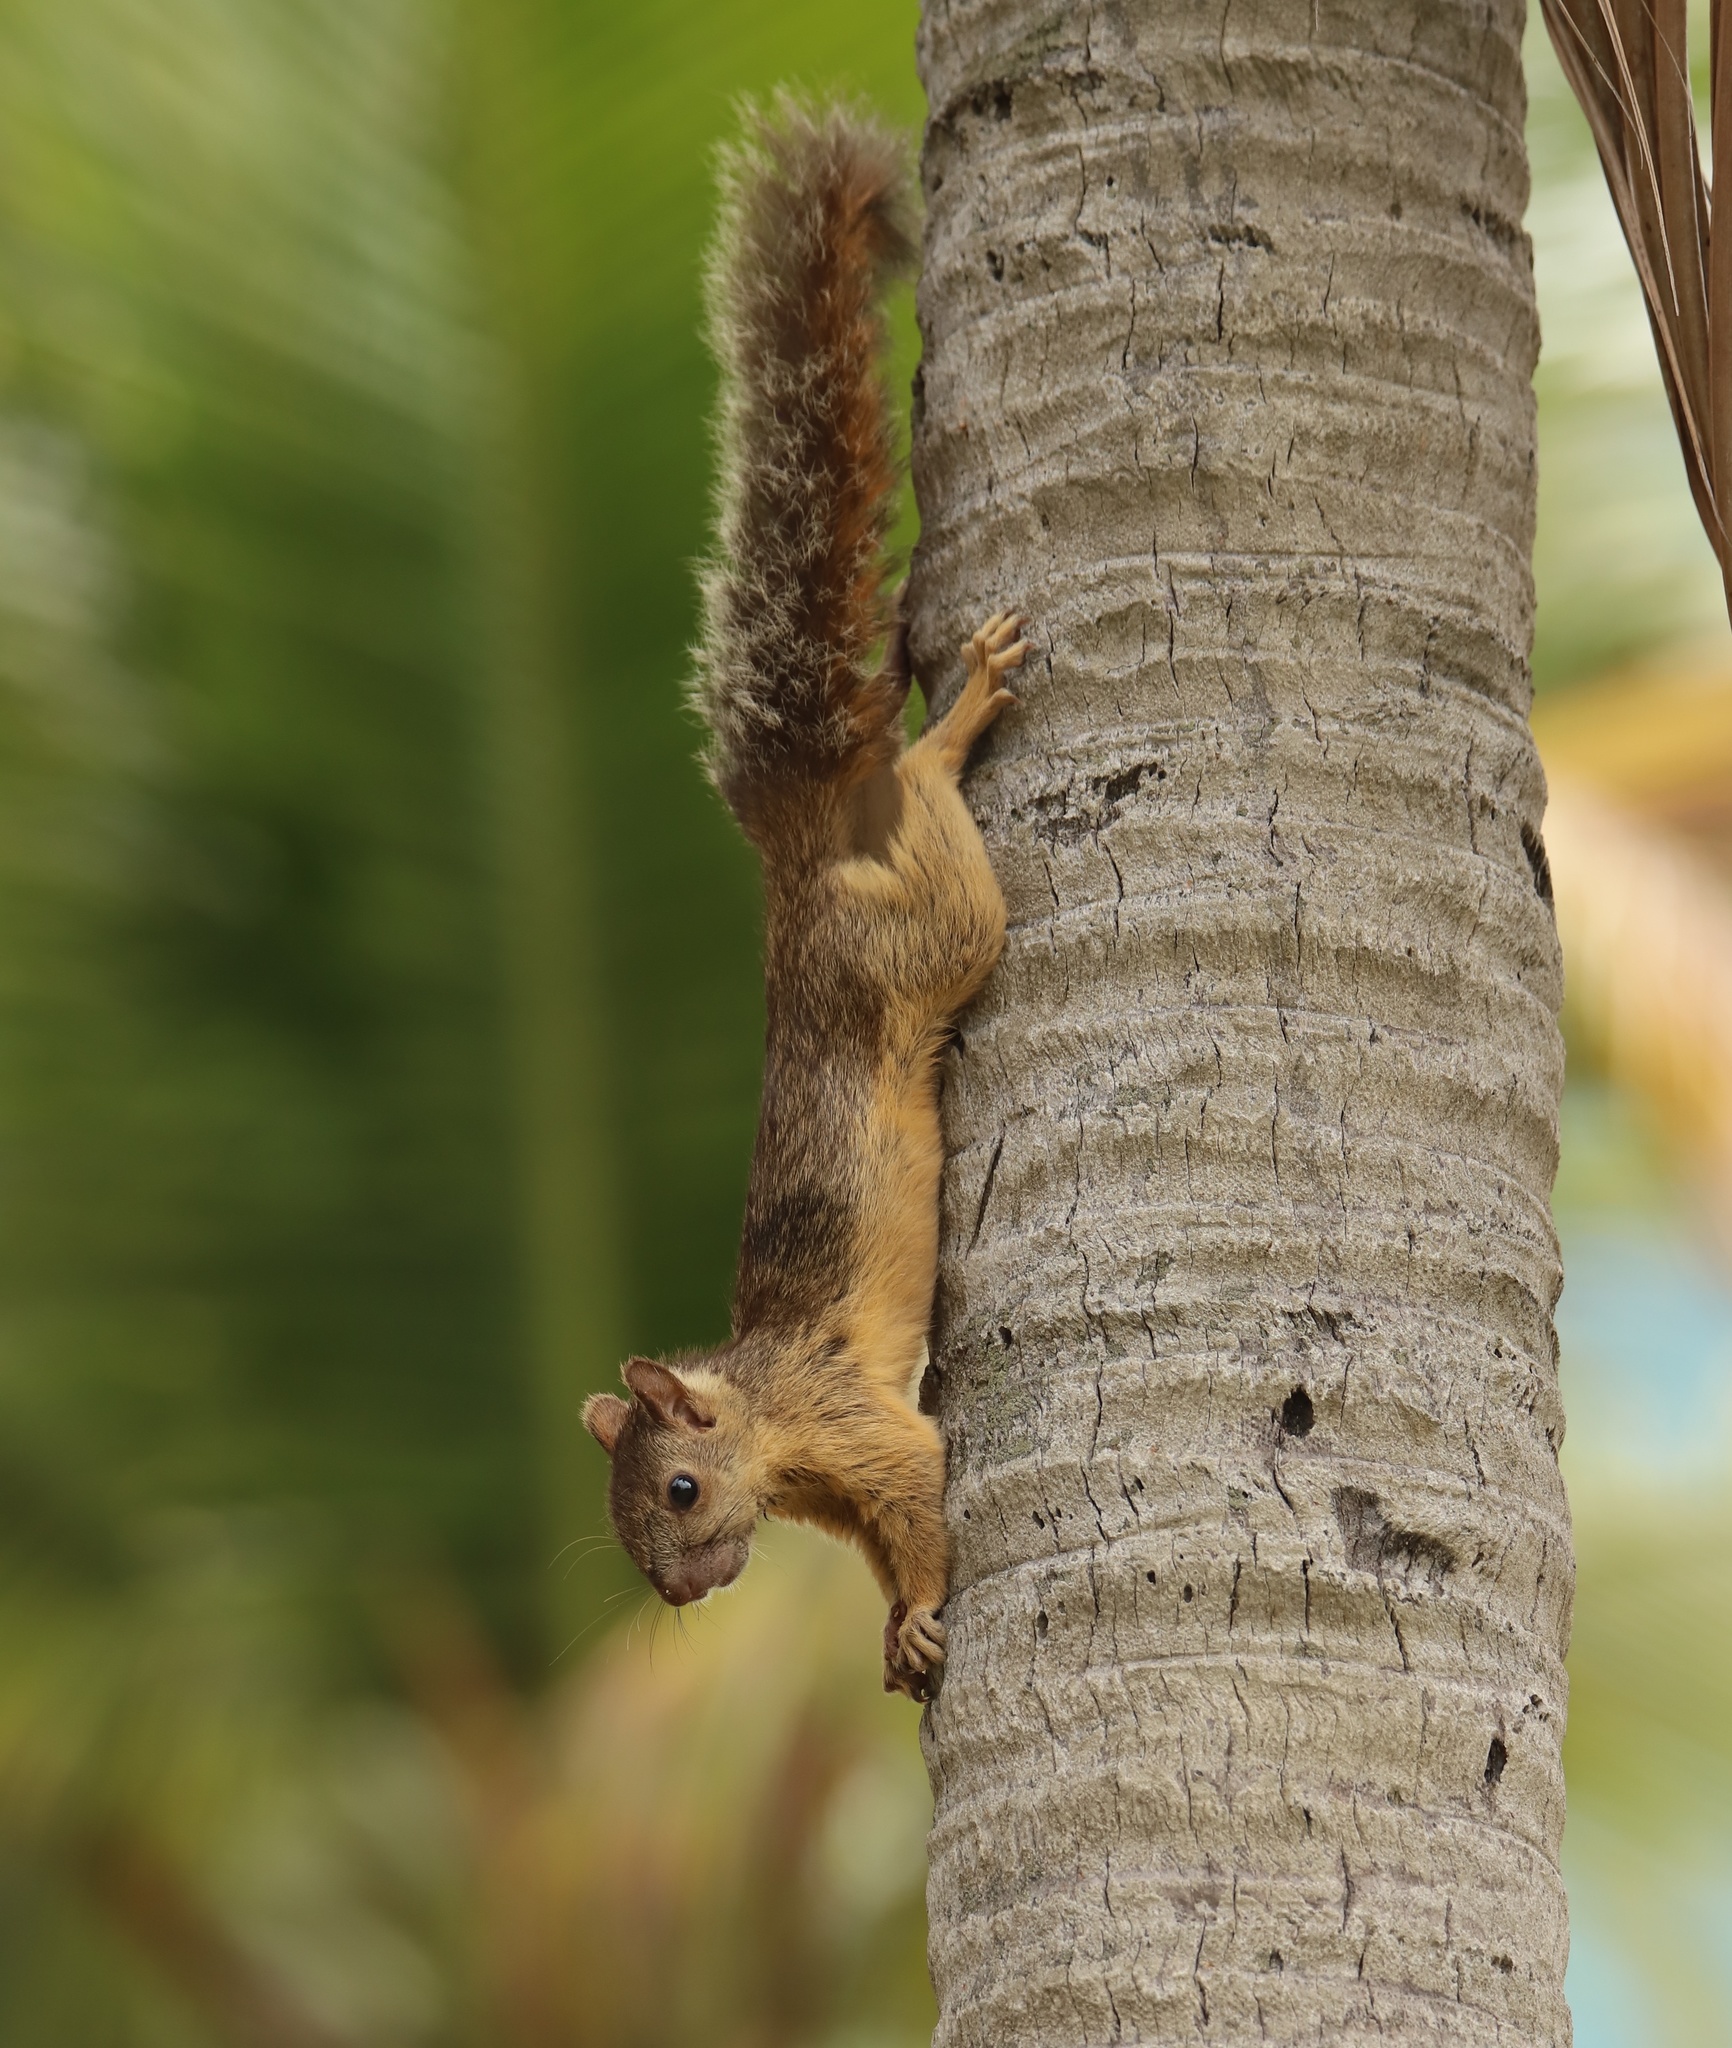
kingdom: Animalia
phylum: Chordata
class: Mammalia
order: Rodentia
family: Sciuridae
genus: Sciurus
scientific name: Sciurus variegatoides
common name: Variegated squirrel
